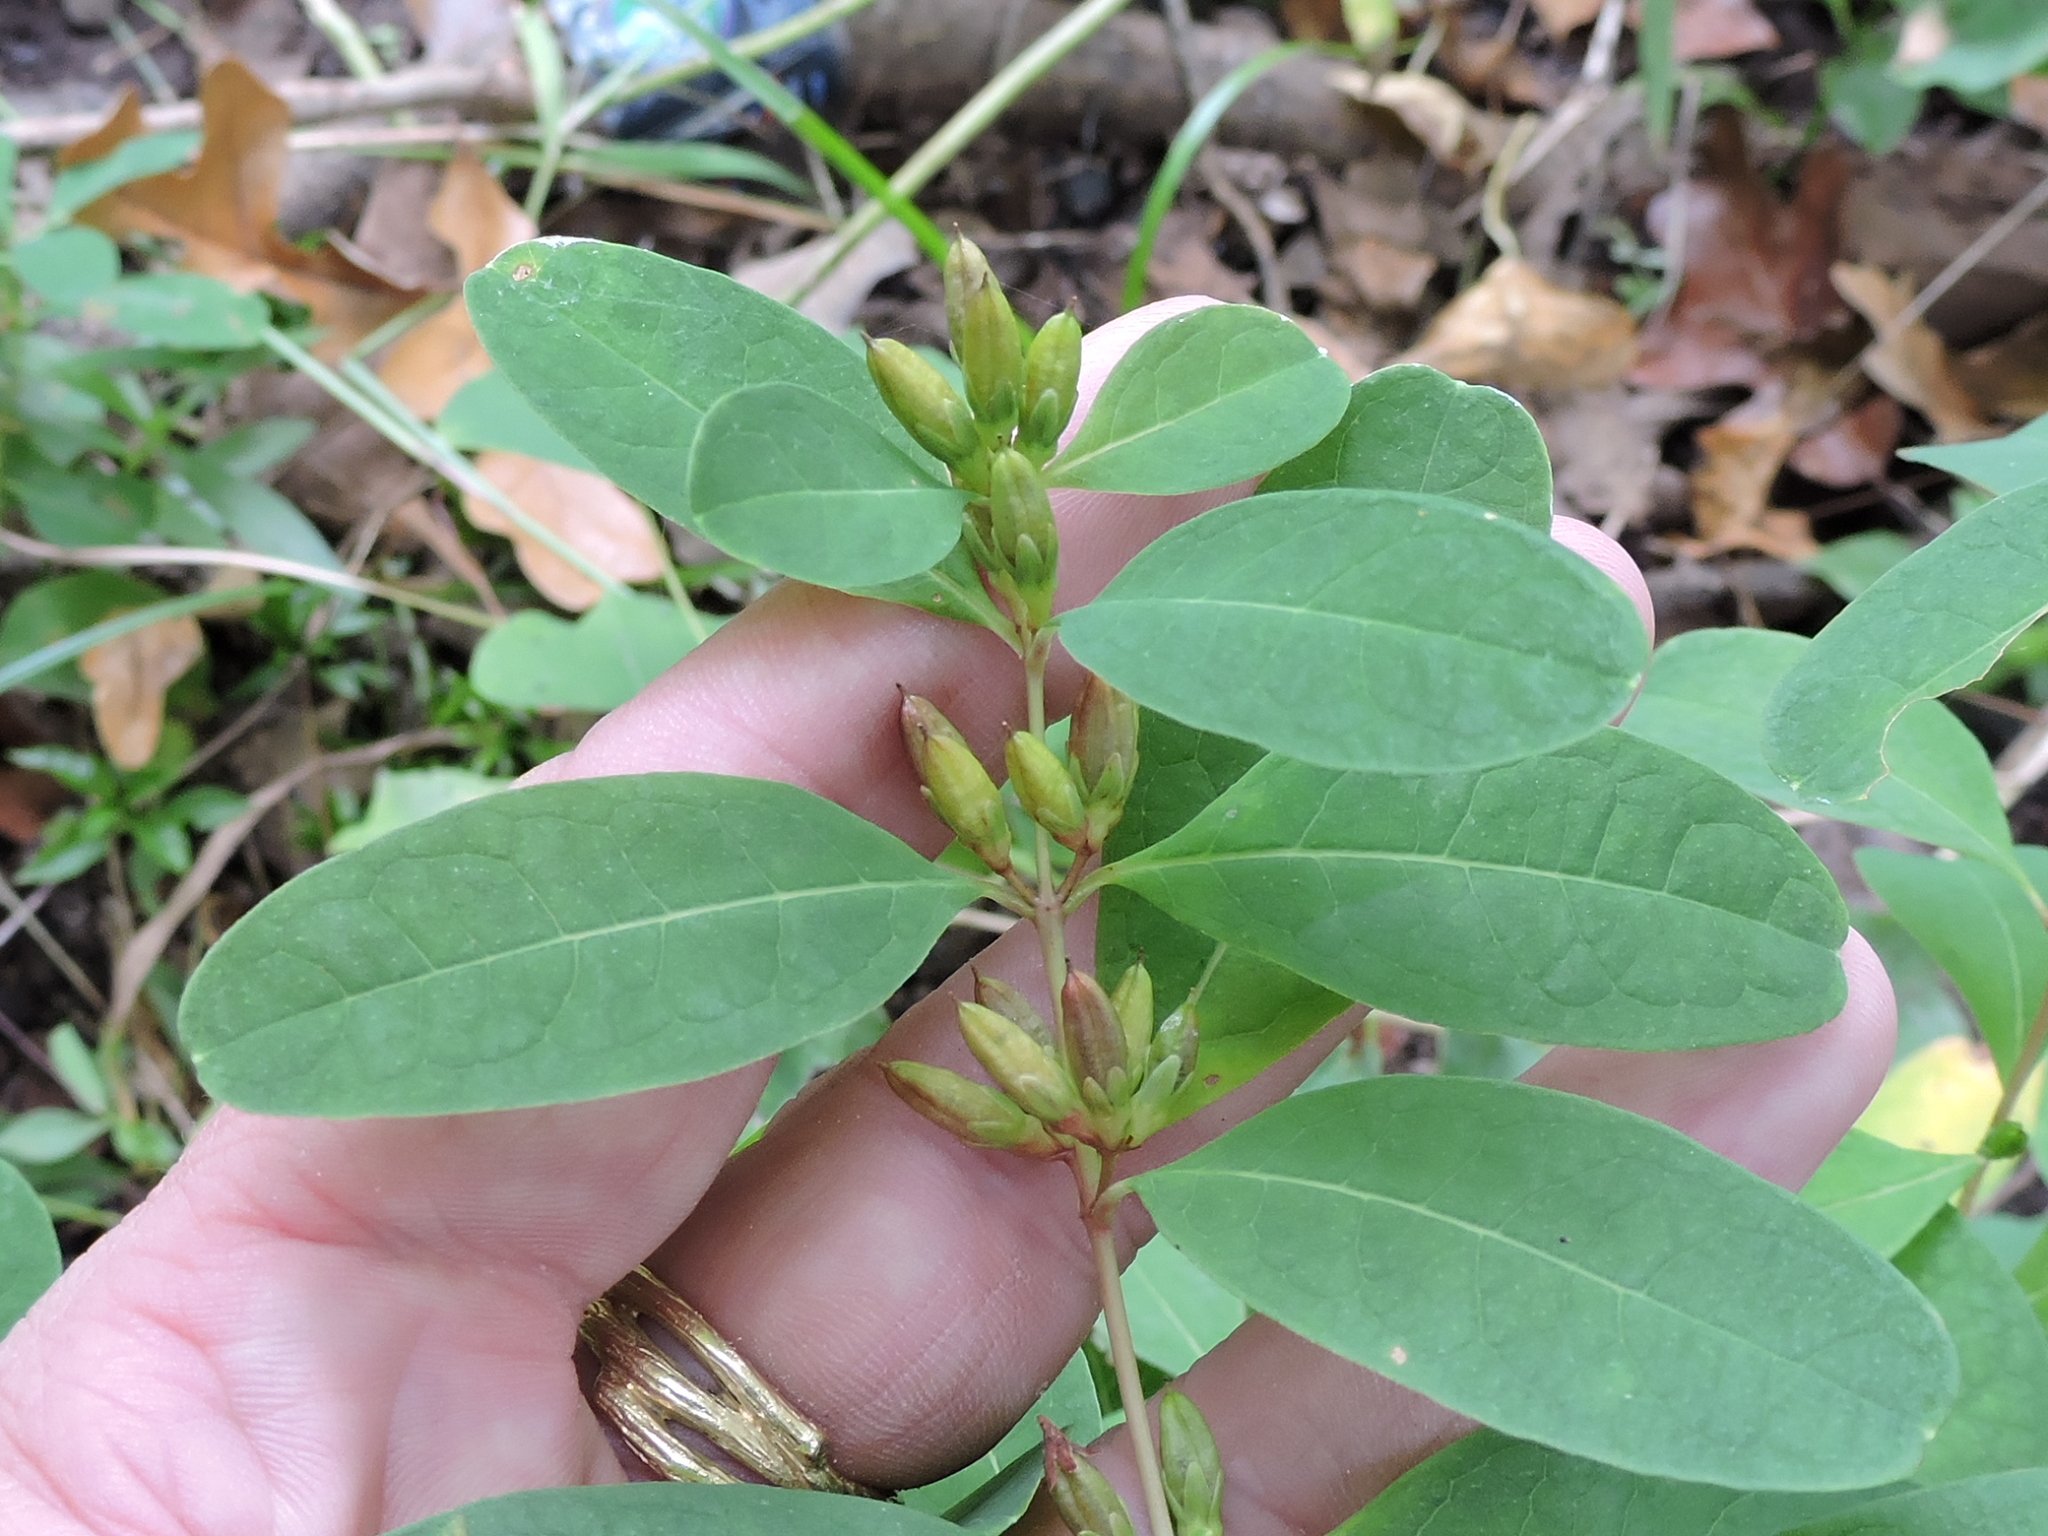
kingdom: Plantae
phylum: Tracheophyta
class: Magnoliopsida
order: Malpighiales
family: Hypericaceae
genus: Triadenum
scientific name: Triadenum walteri
